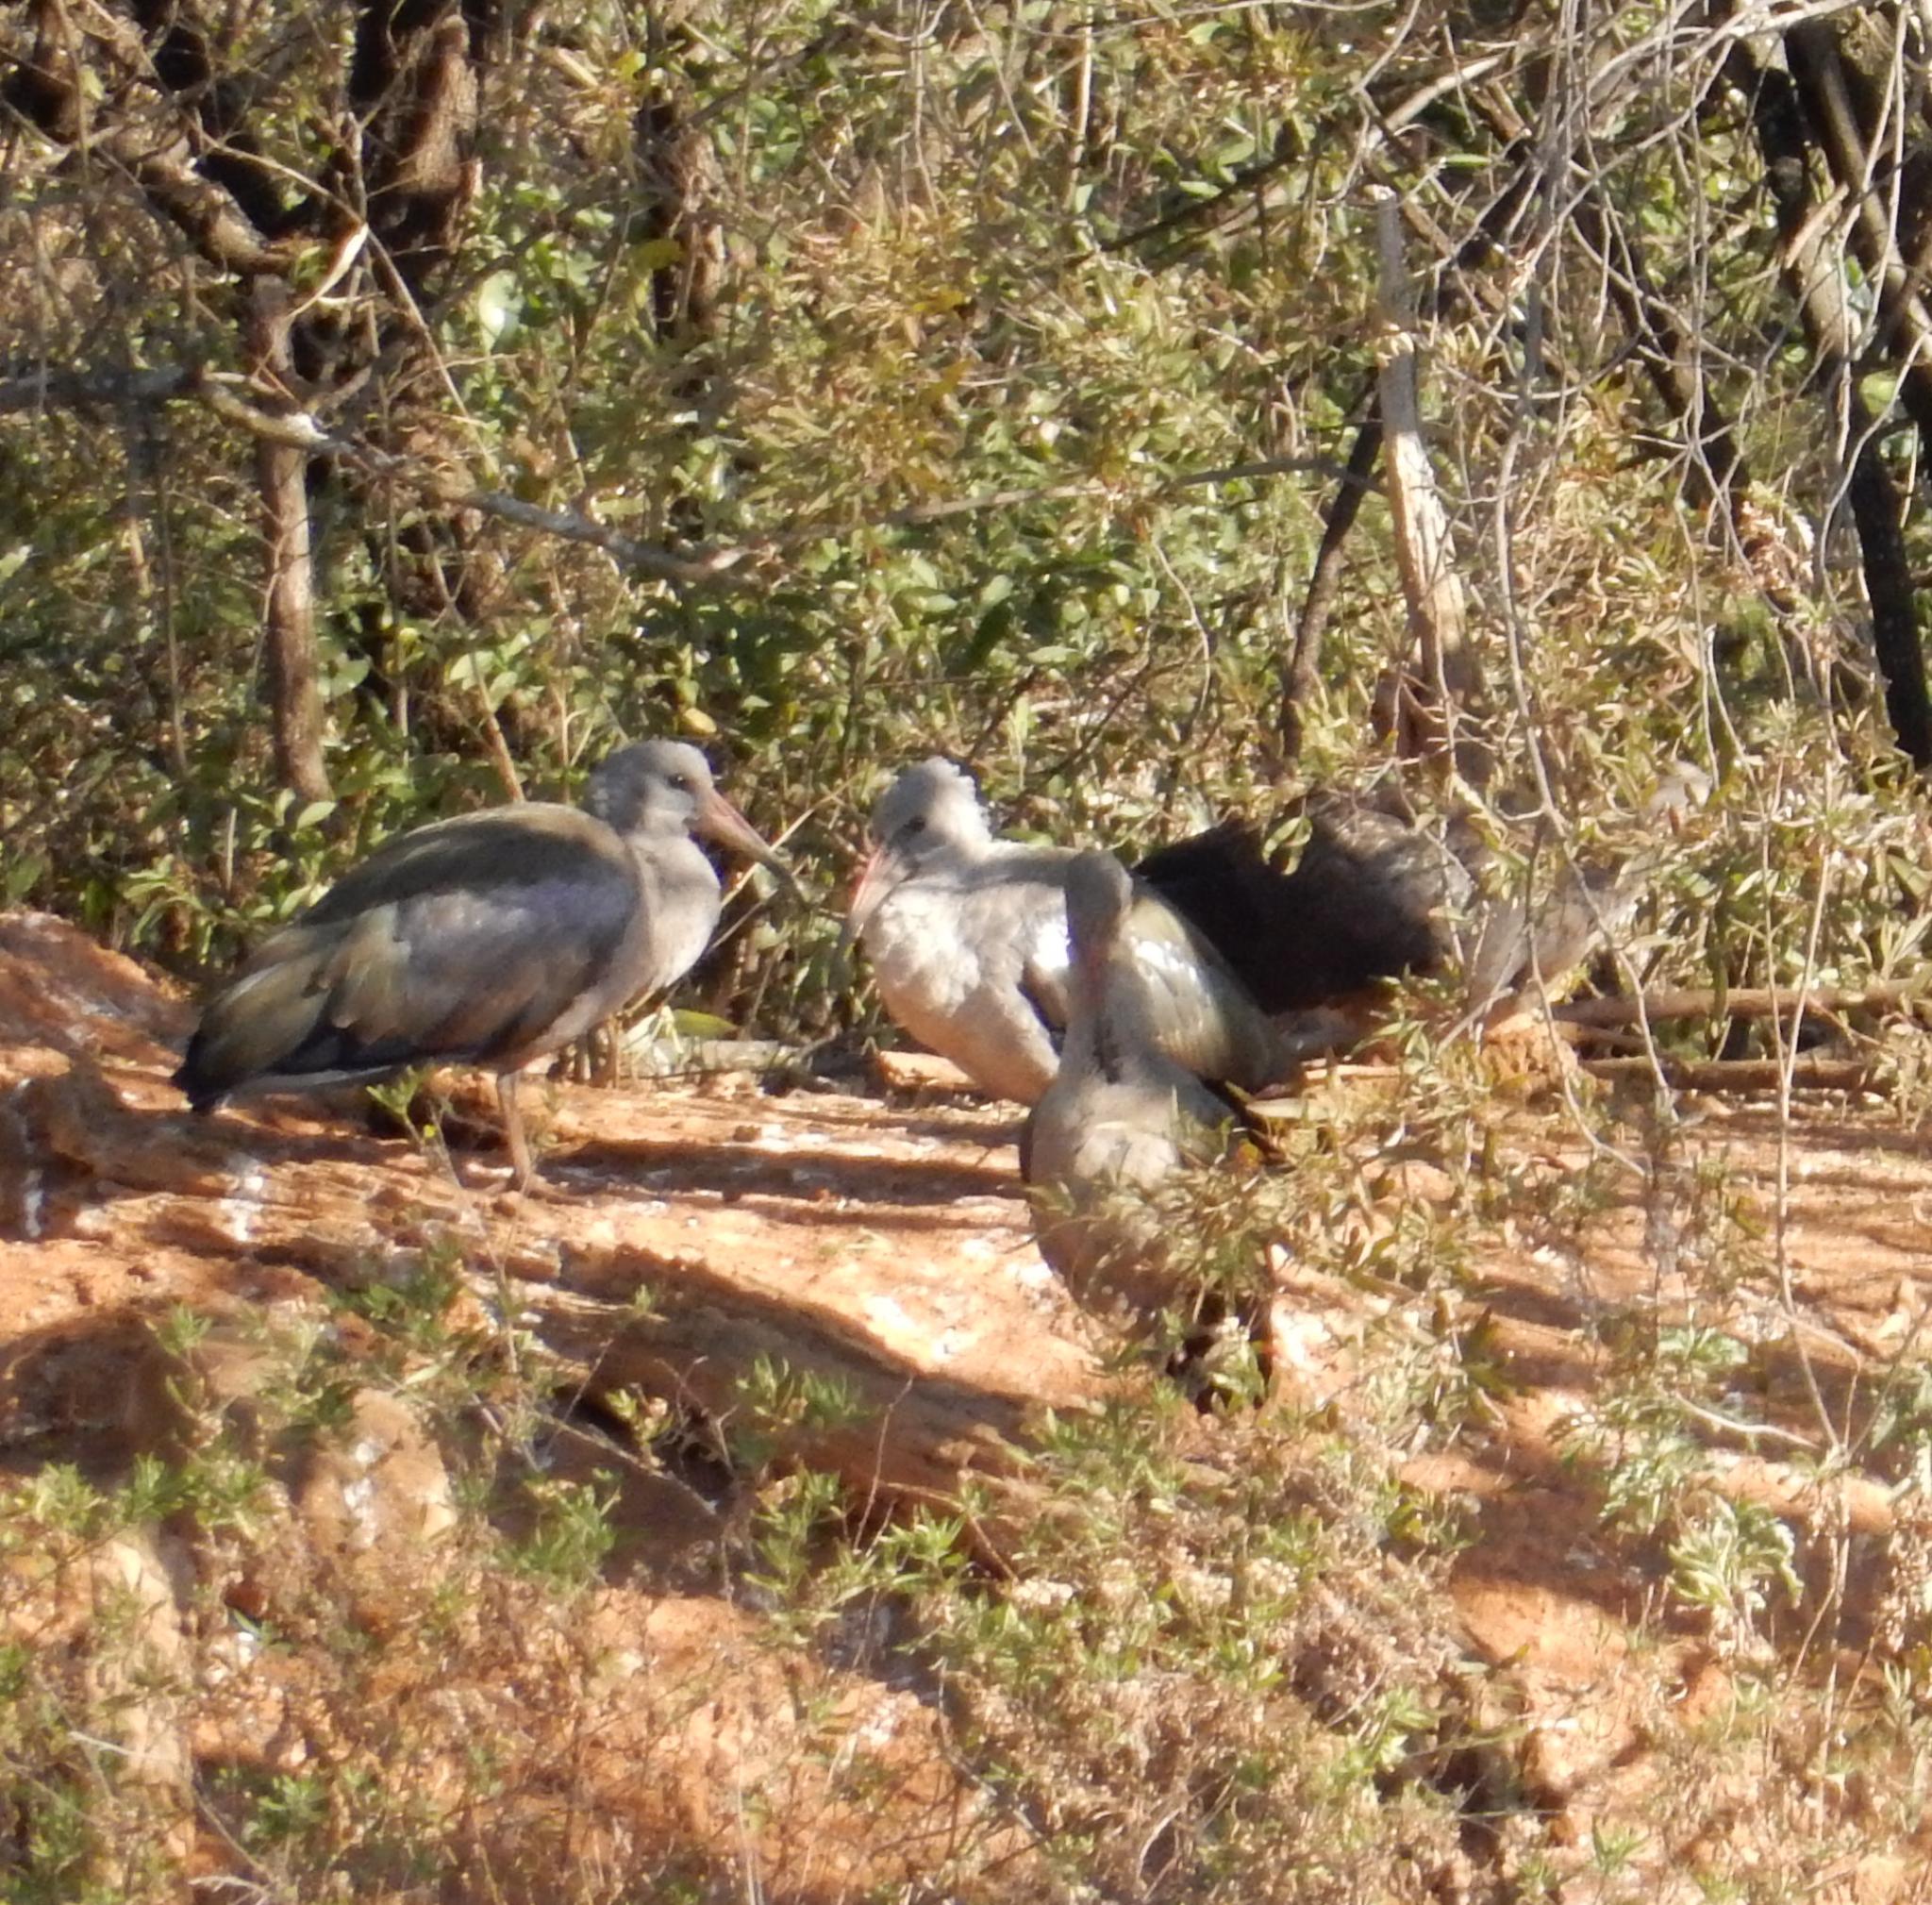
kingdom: Animalia
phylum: Chordata
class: Aves
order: Pelecaniformes
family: Threskiornithidae
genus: Bostrychia
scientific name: Bostrychia hagedash
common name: Hadada ibis
